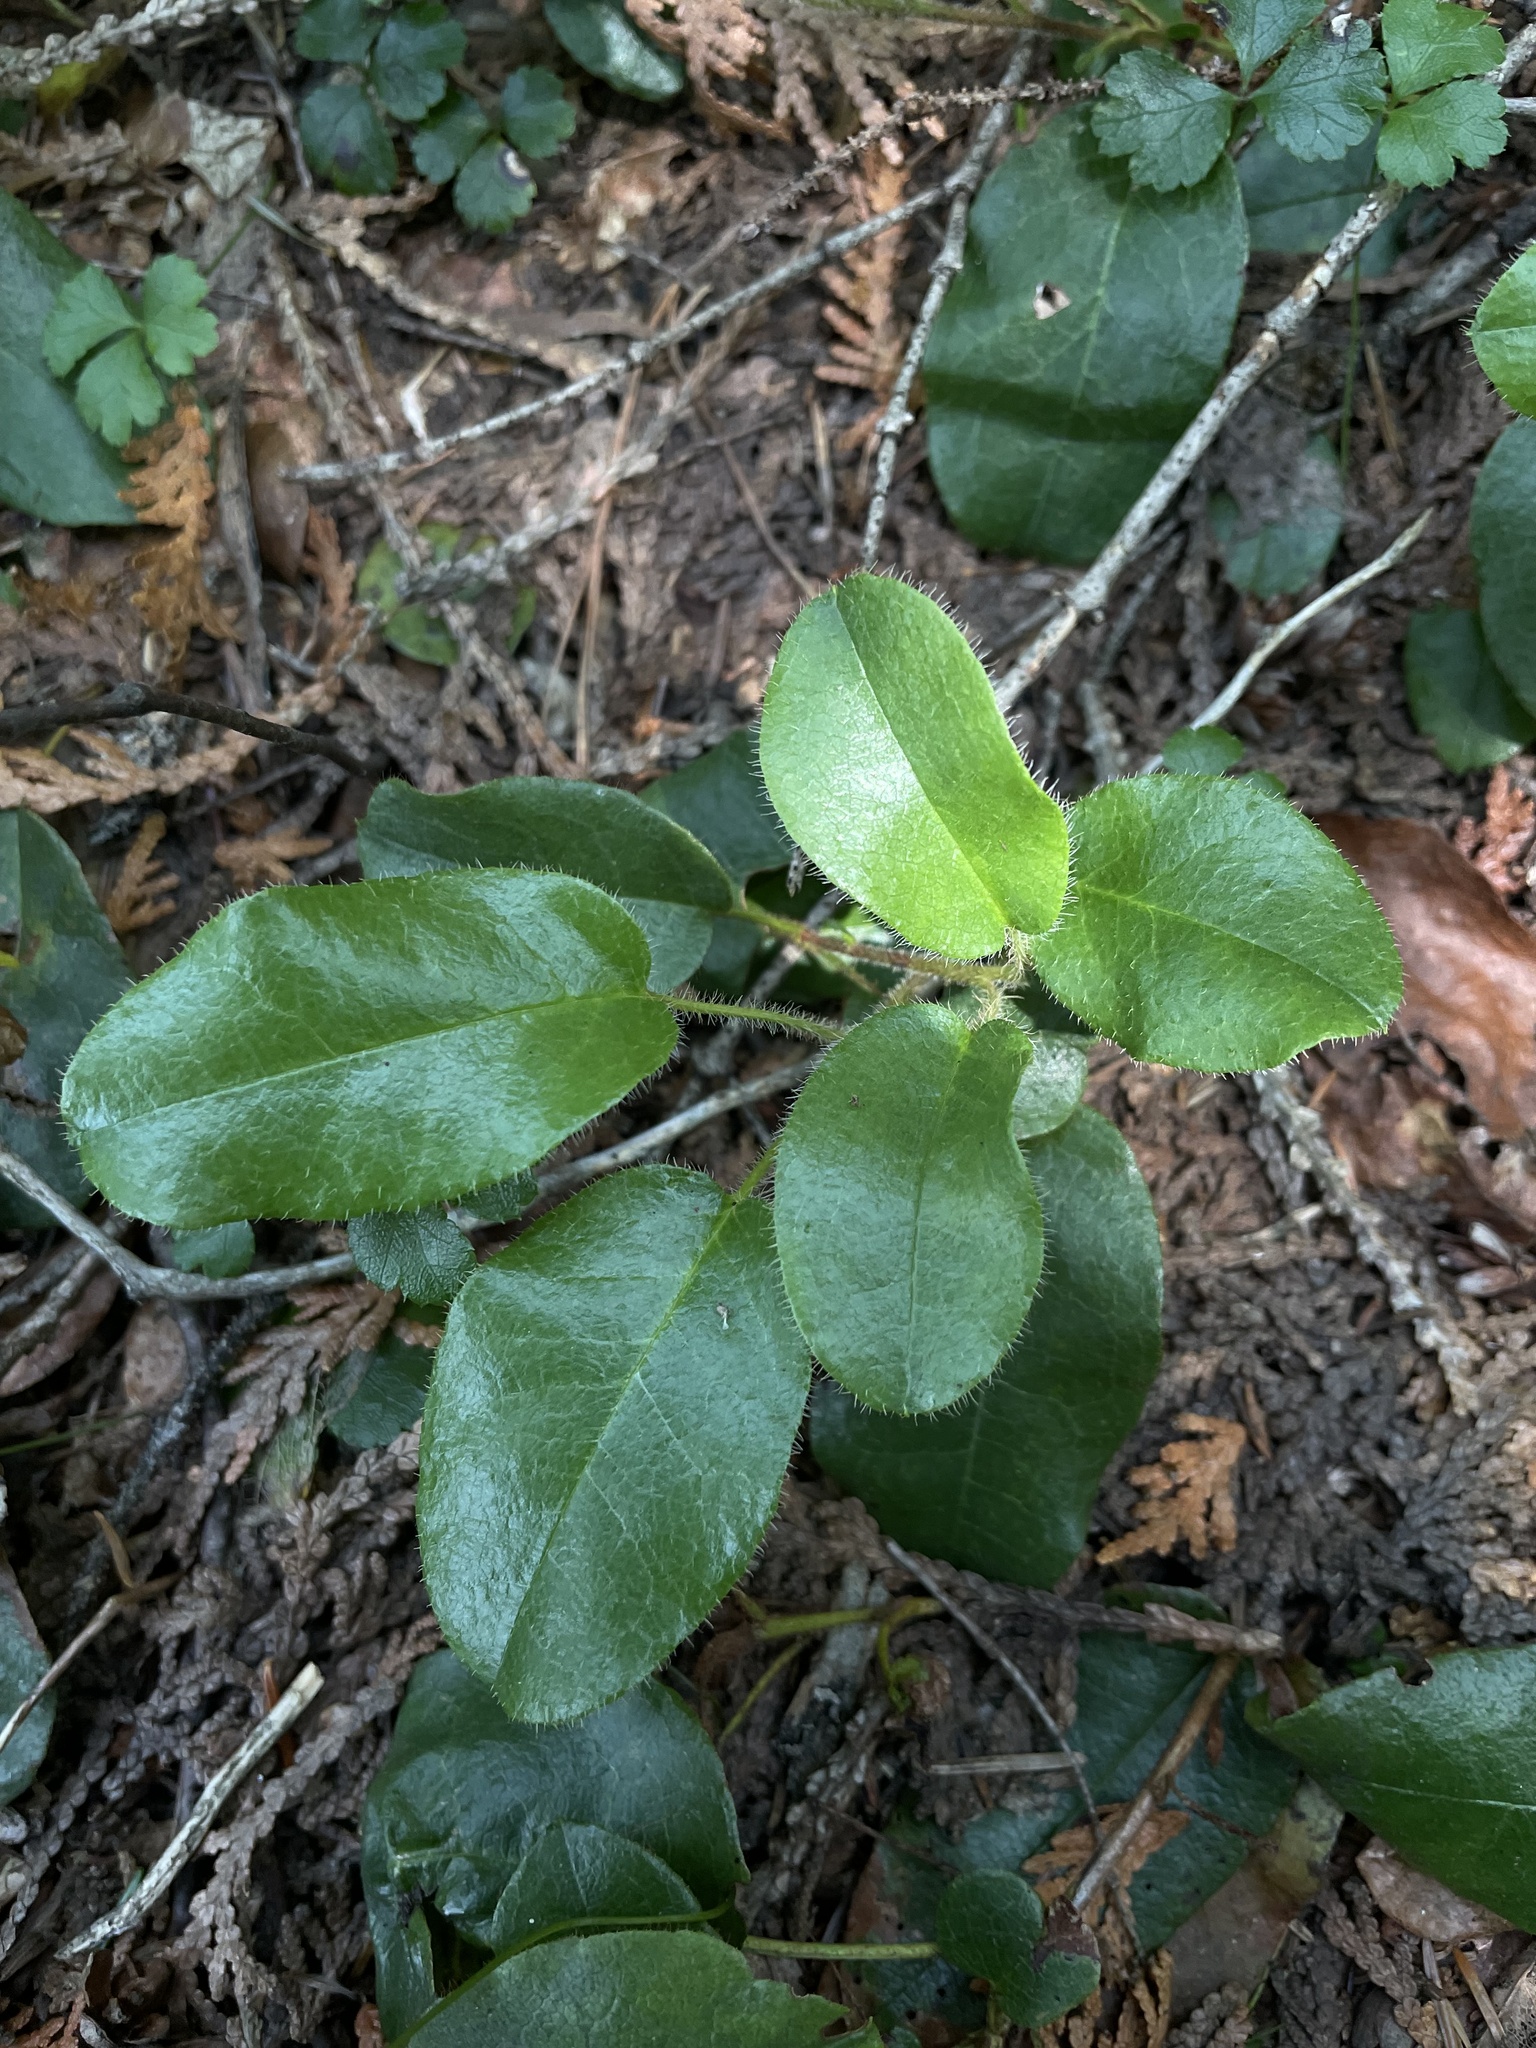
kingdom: Plantae
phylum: Tracheophyta
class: Magnoliopsida
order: Ericales
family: Ericaceae
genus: Epigaea
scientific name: Epigaea repens
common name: Gravelroot
